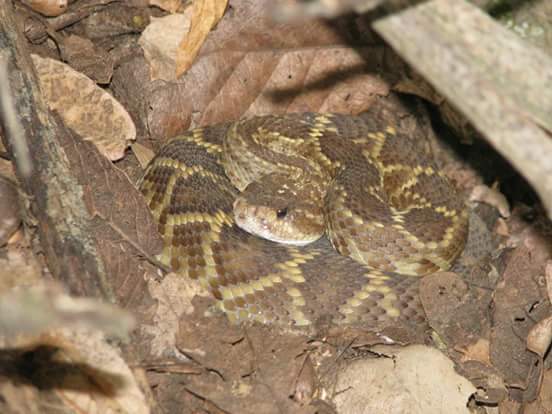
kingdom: Animalia
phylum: Chordata
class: Squamata
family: Viperidae
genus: Crotalus
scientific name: Crotalus molossus
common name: Black tailed rattlesnake
